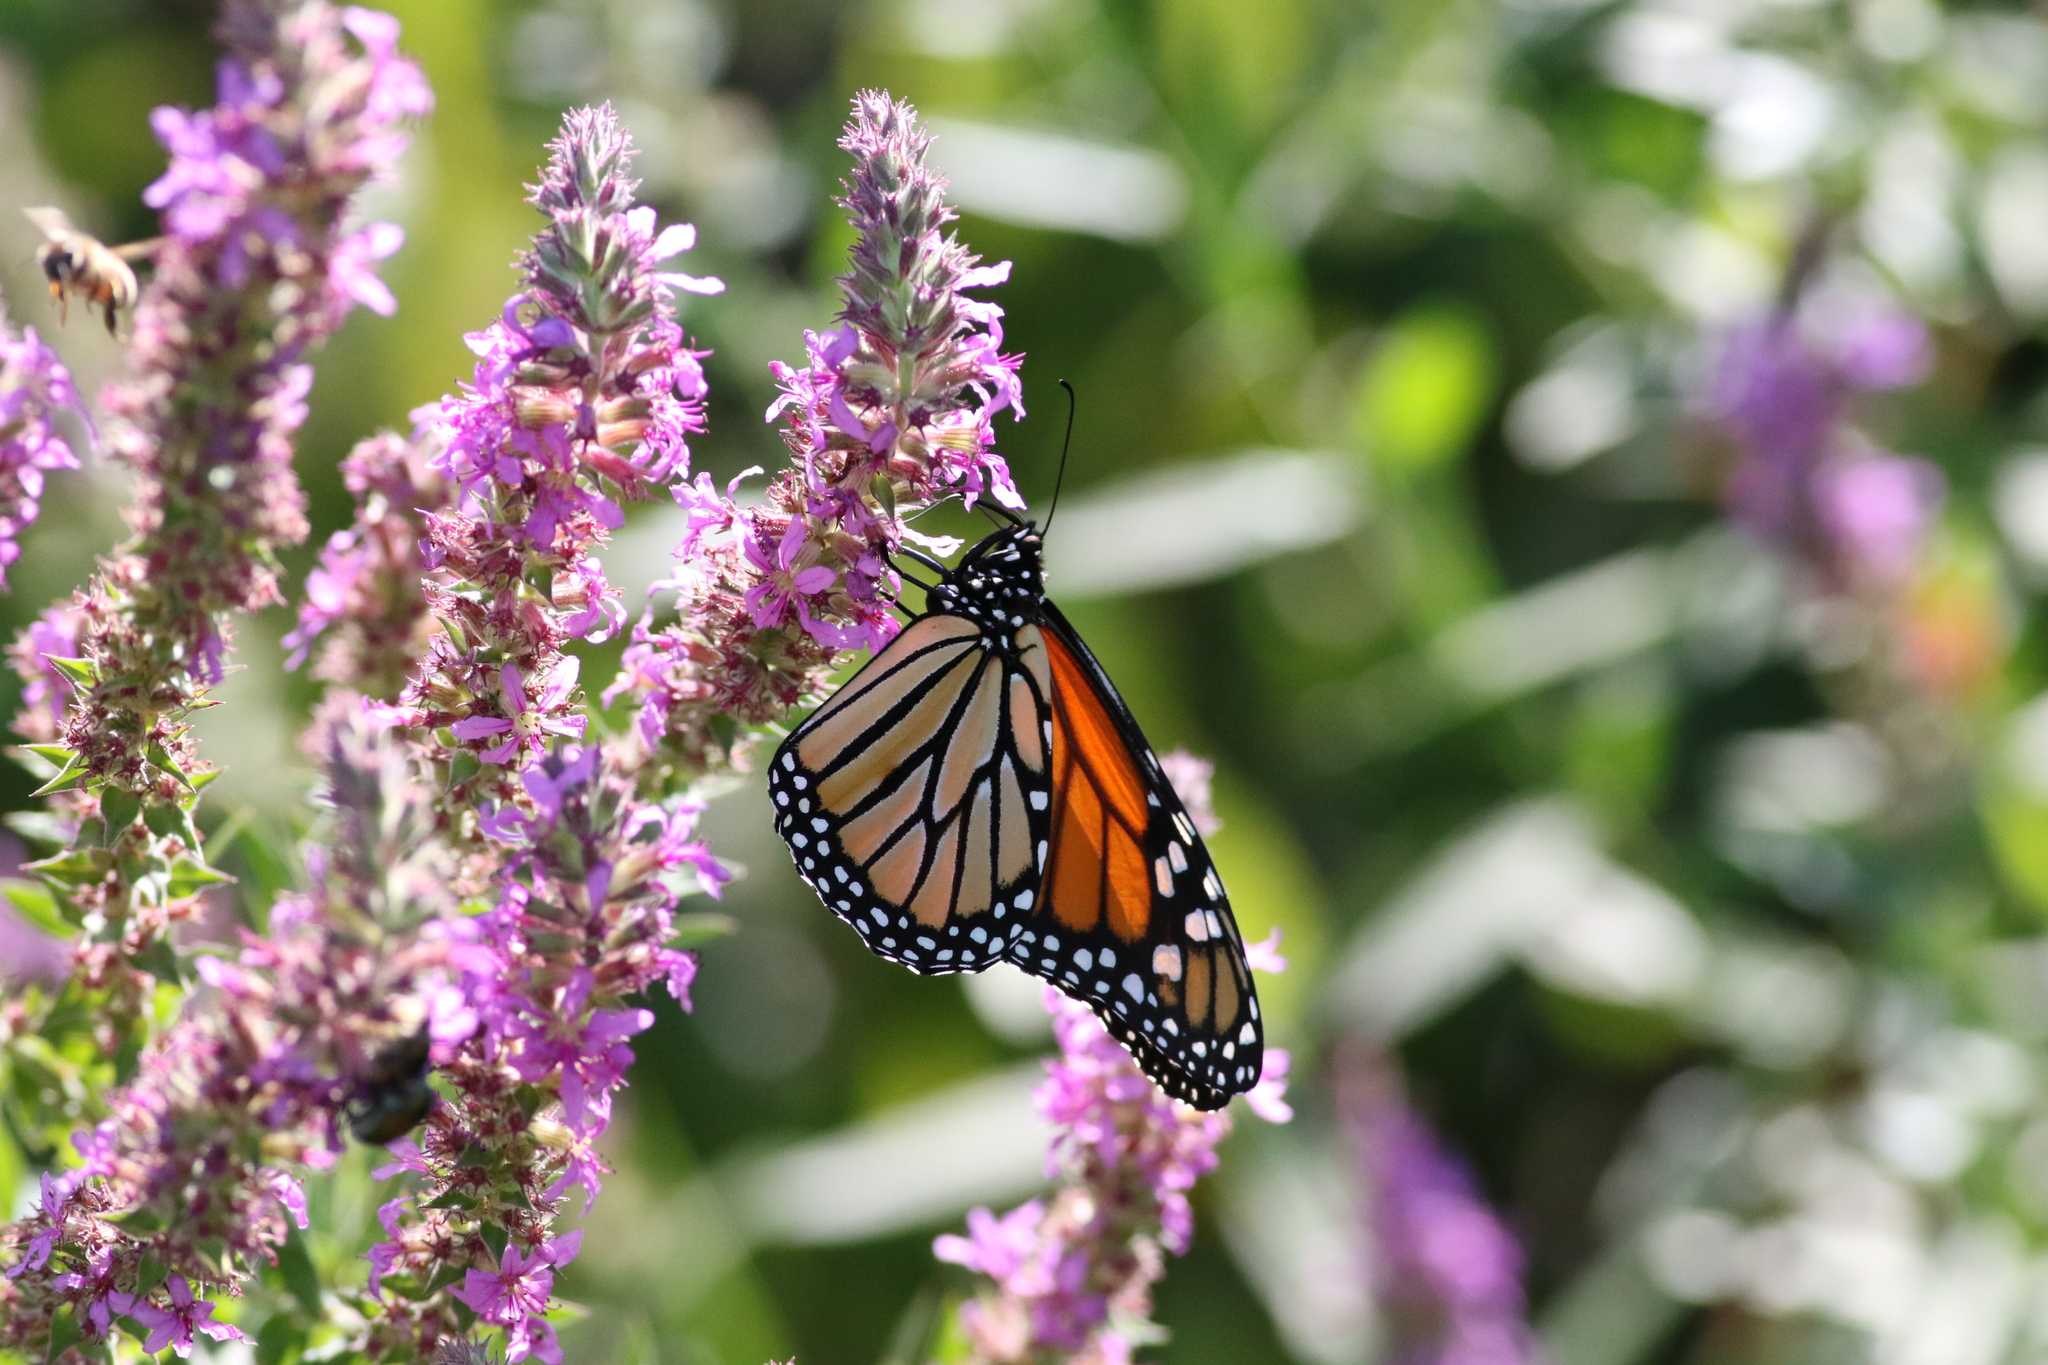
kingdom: Animalia
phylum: Arthropoda
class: Insecta
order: Lepidoptera
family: Nymphalidae
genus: Danaus
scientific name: Danaus plexippus
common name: Monarch
